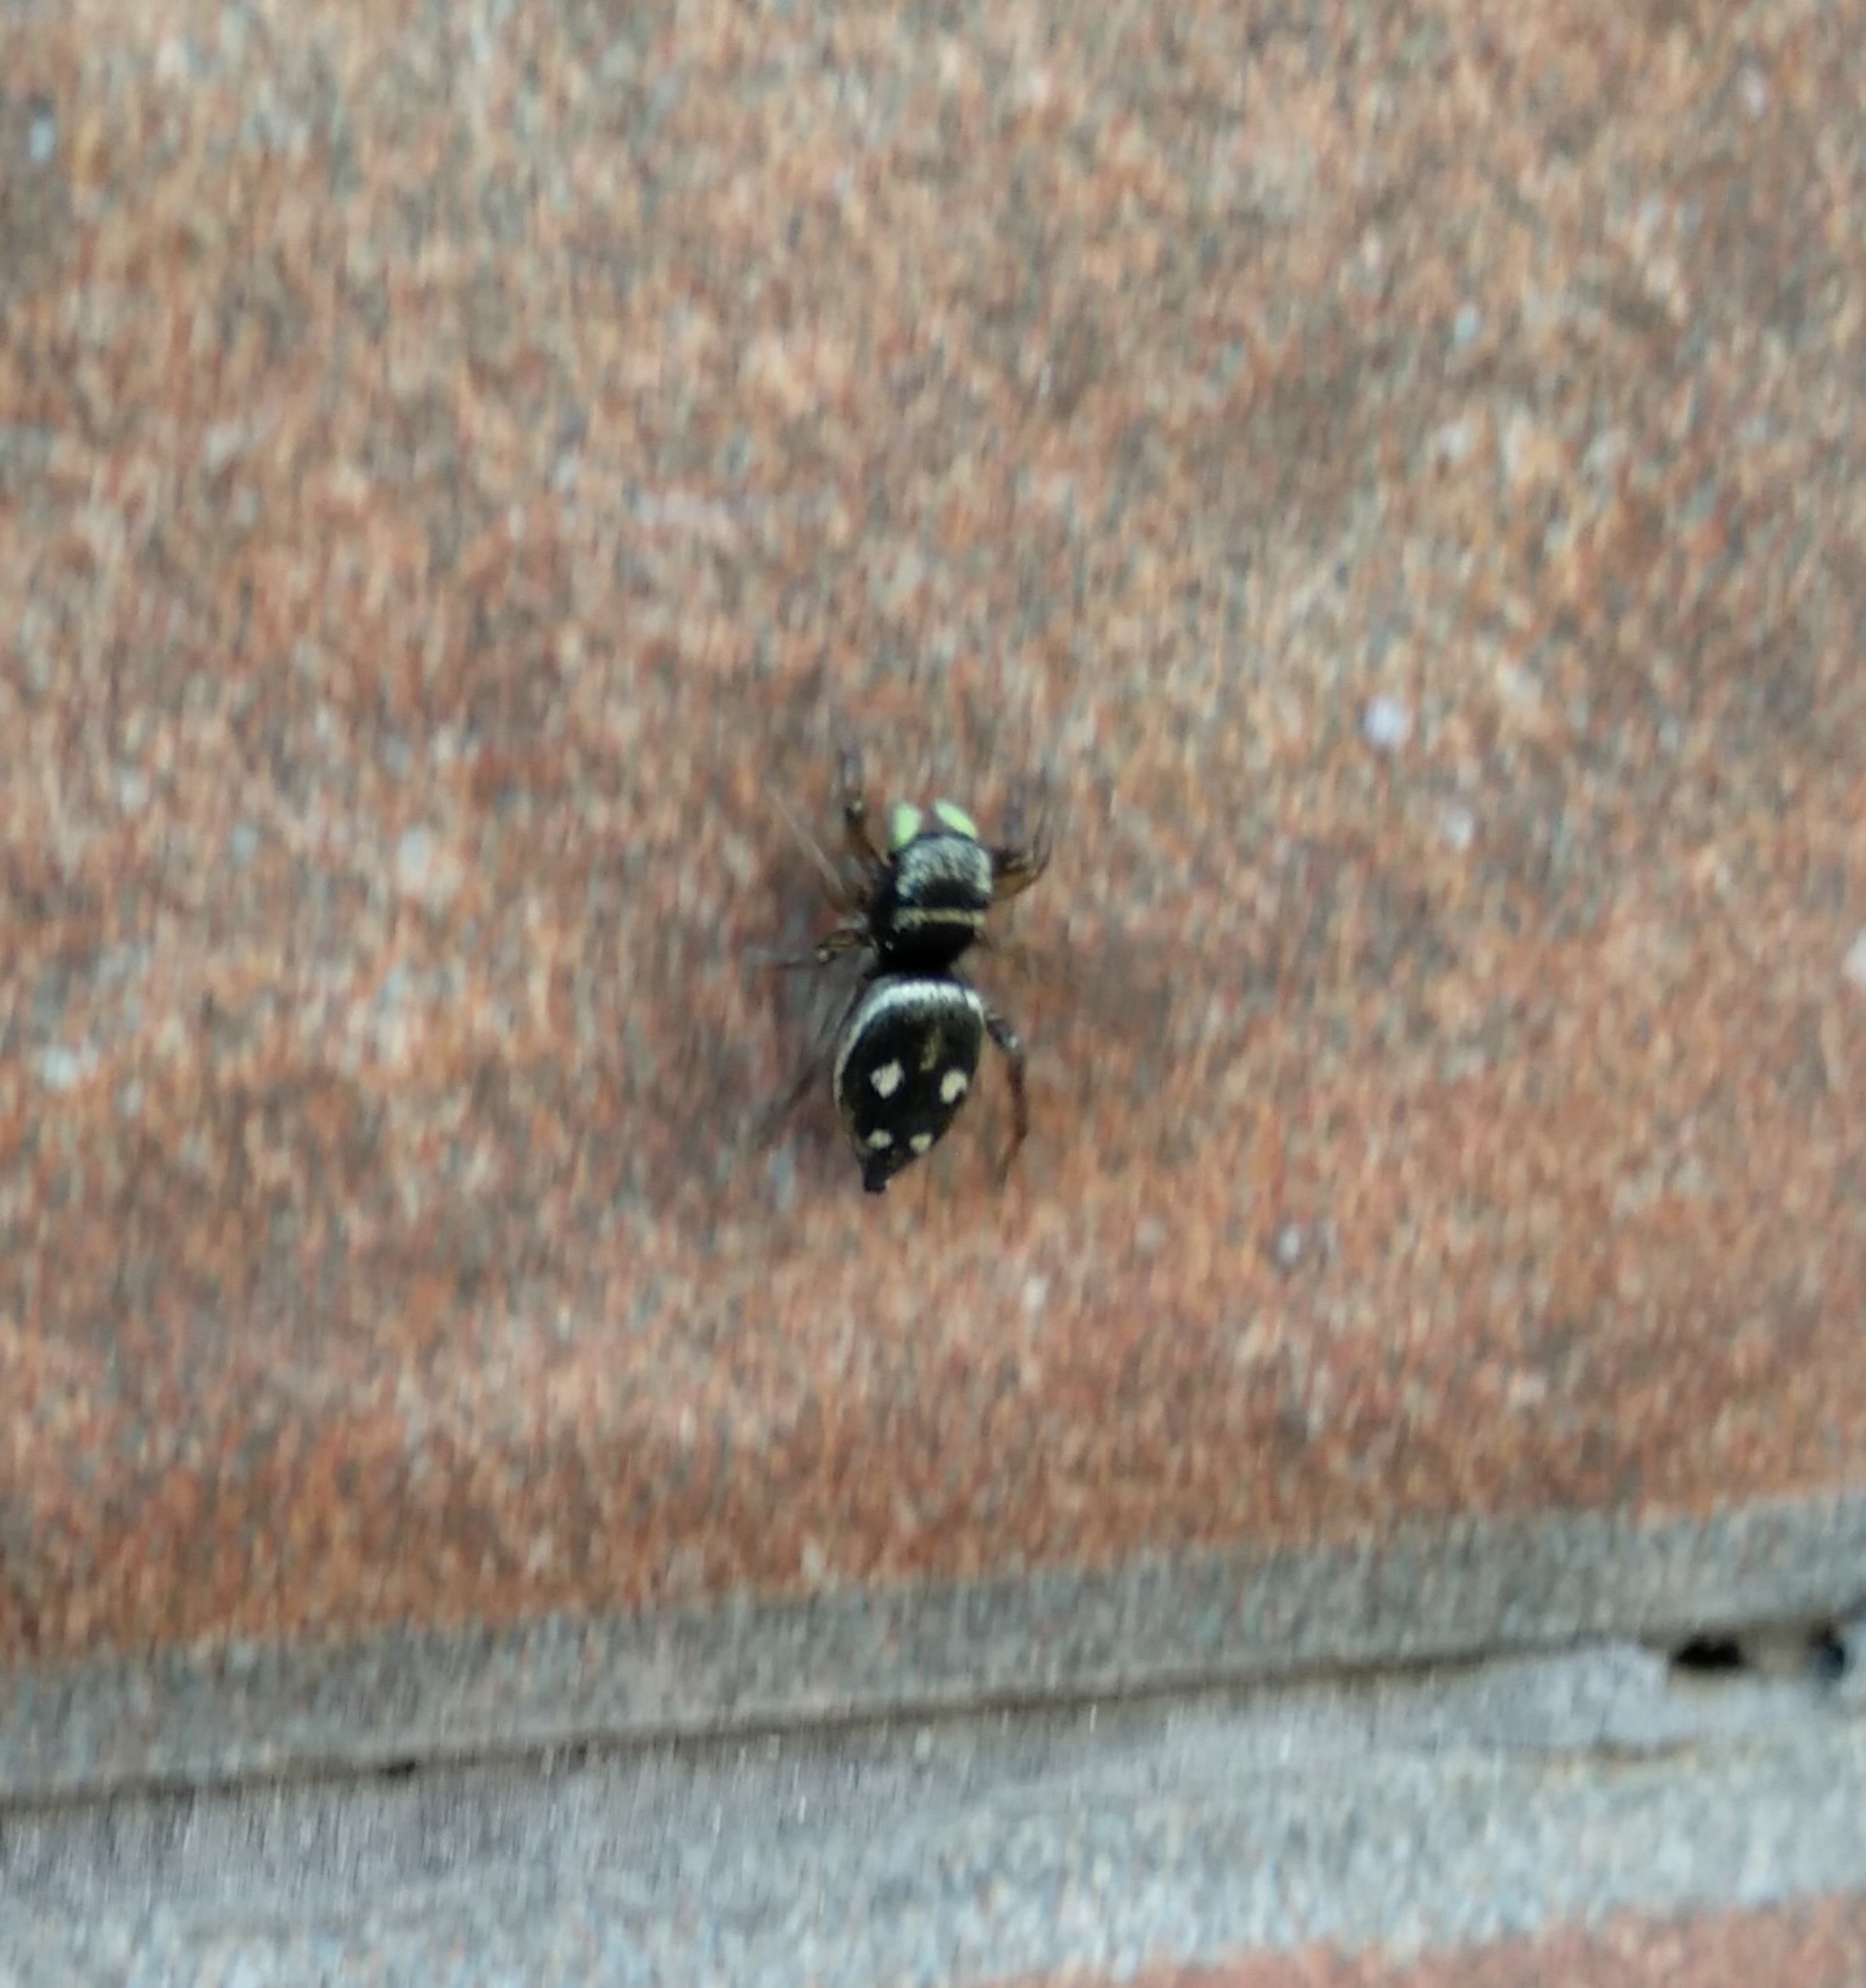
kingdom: Animalia
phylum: Arthropoda
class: Arachnida
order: Araneae
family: Salticidae
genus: Heliophanus
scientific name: Heliophanus apiatus
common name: Sun jumping spider
